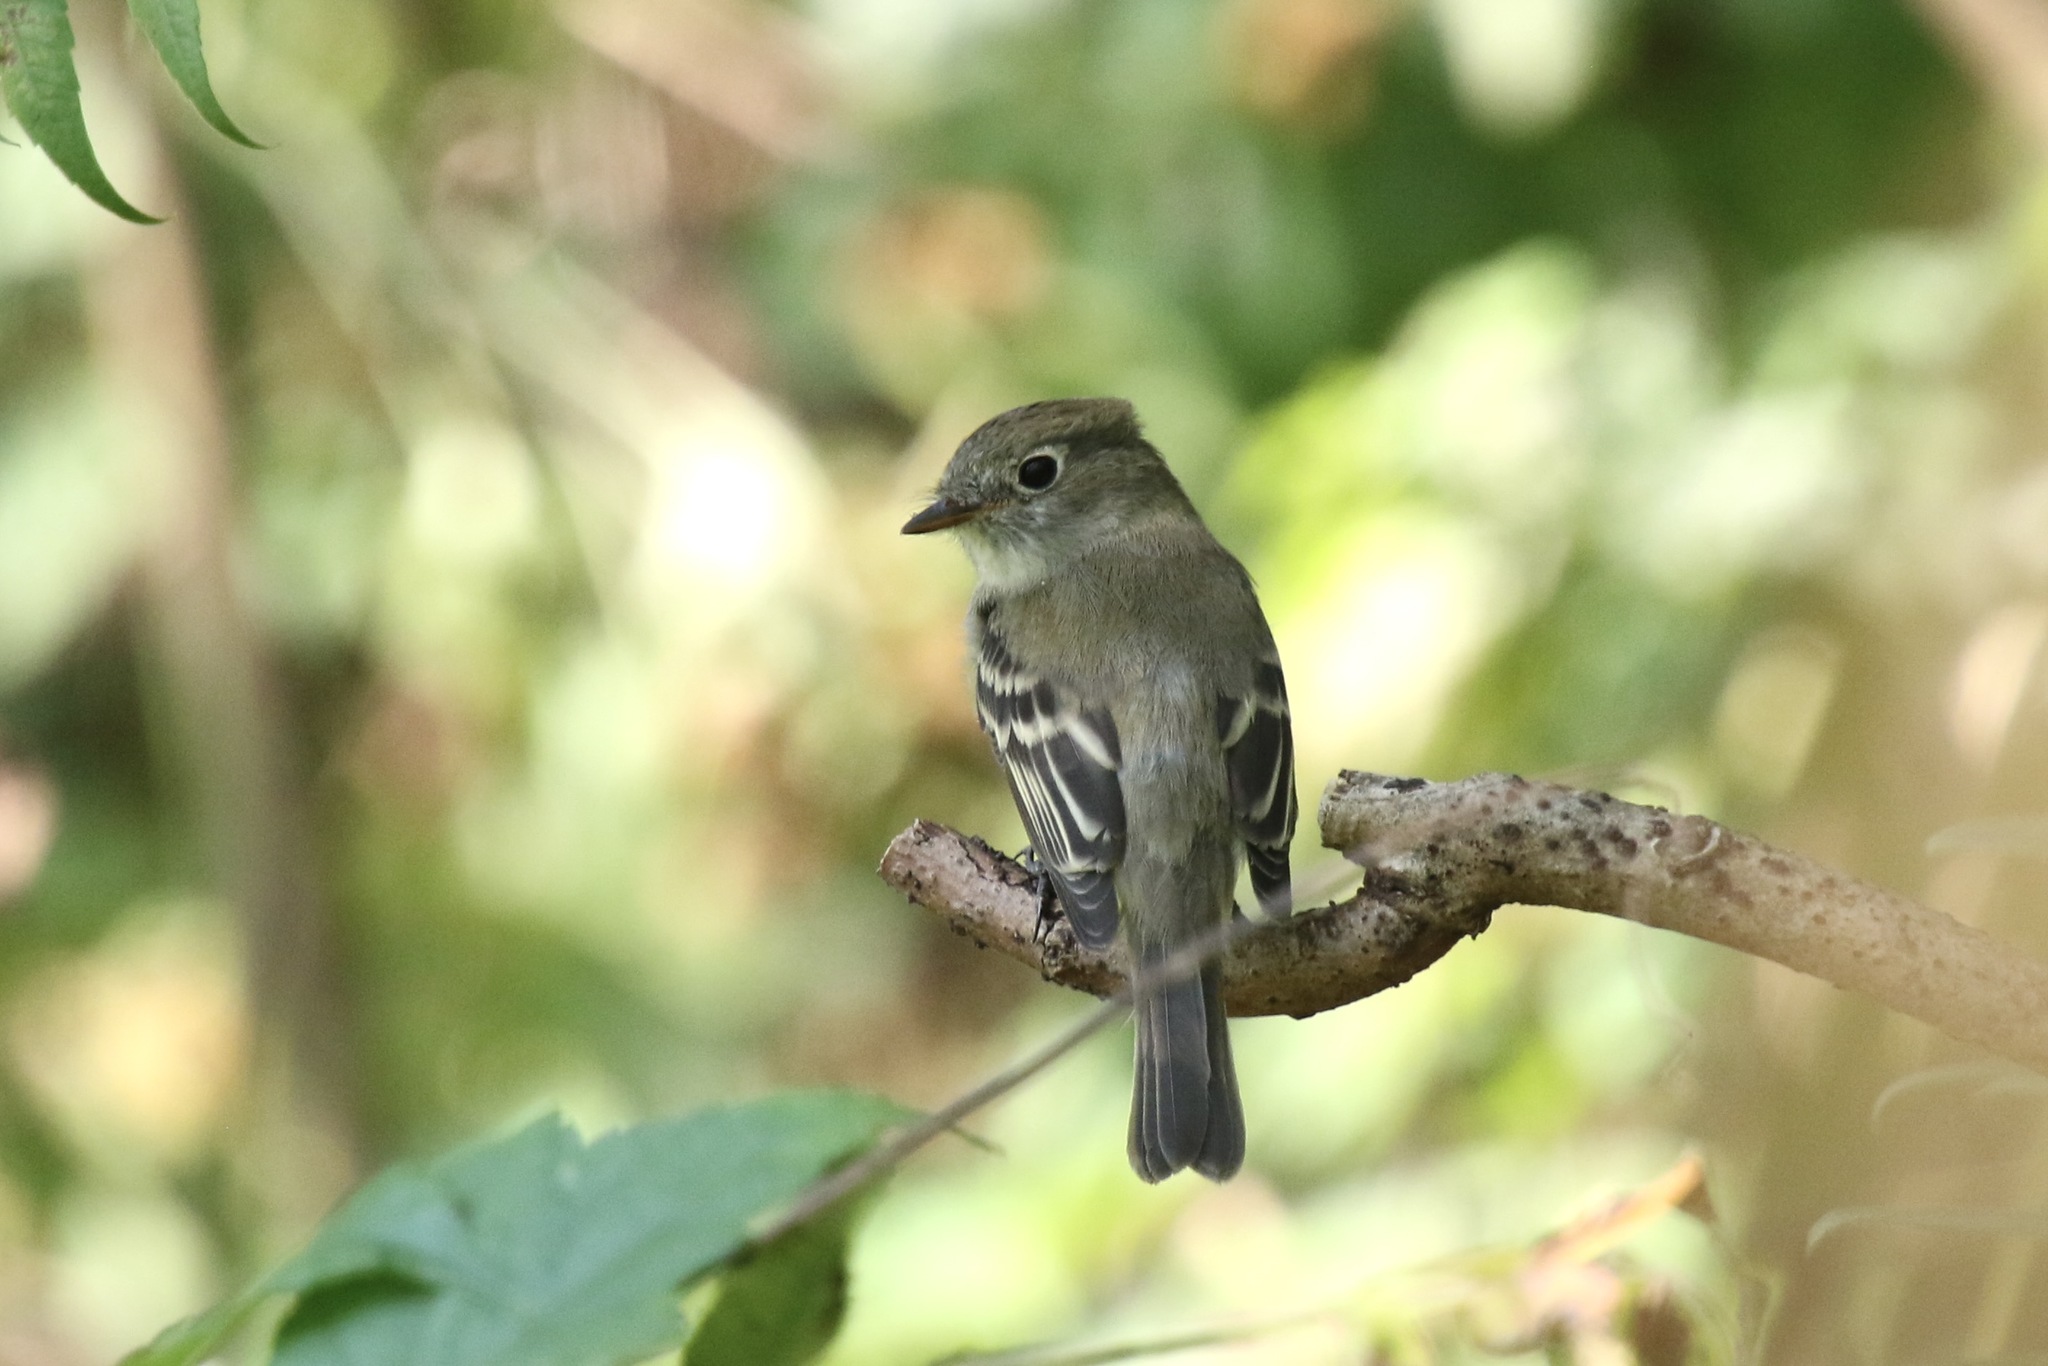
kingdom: Animalia
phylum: Chordata
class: Aves
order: Passeriformes
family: Tyrannidae
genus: Empidonax
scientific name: Empidonax minimus
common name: Least flycatcher
